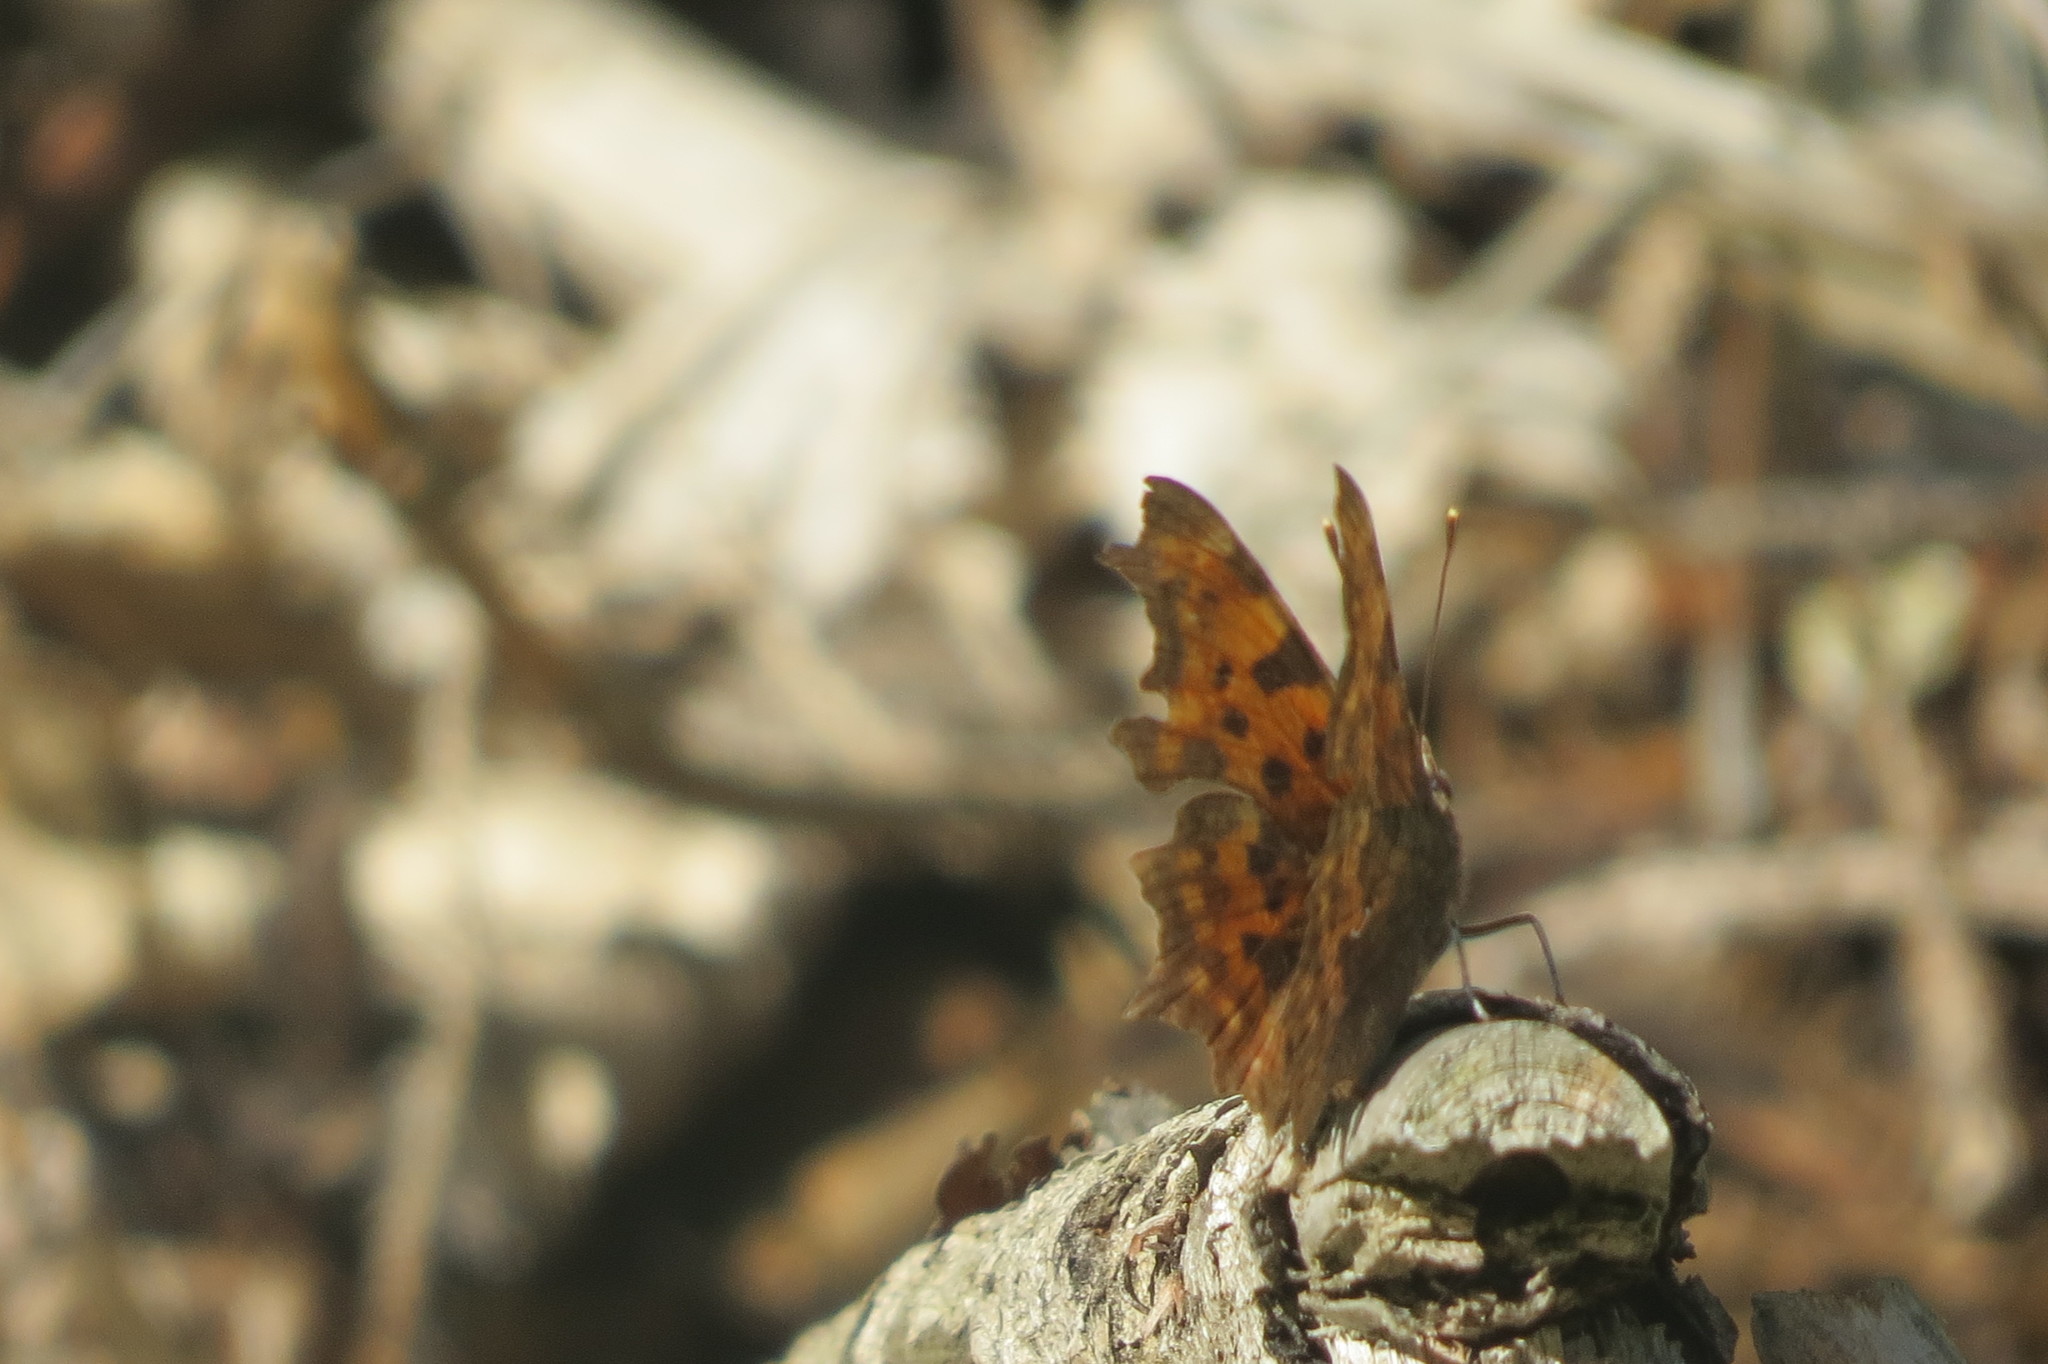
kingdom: Animalia
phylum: Arthropoda
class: Insecta
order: Lepidoptera
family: Nymphalidae
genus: Polygonia
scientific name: Polygonia c-album
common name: Comma
